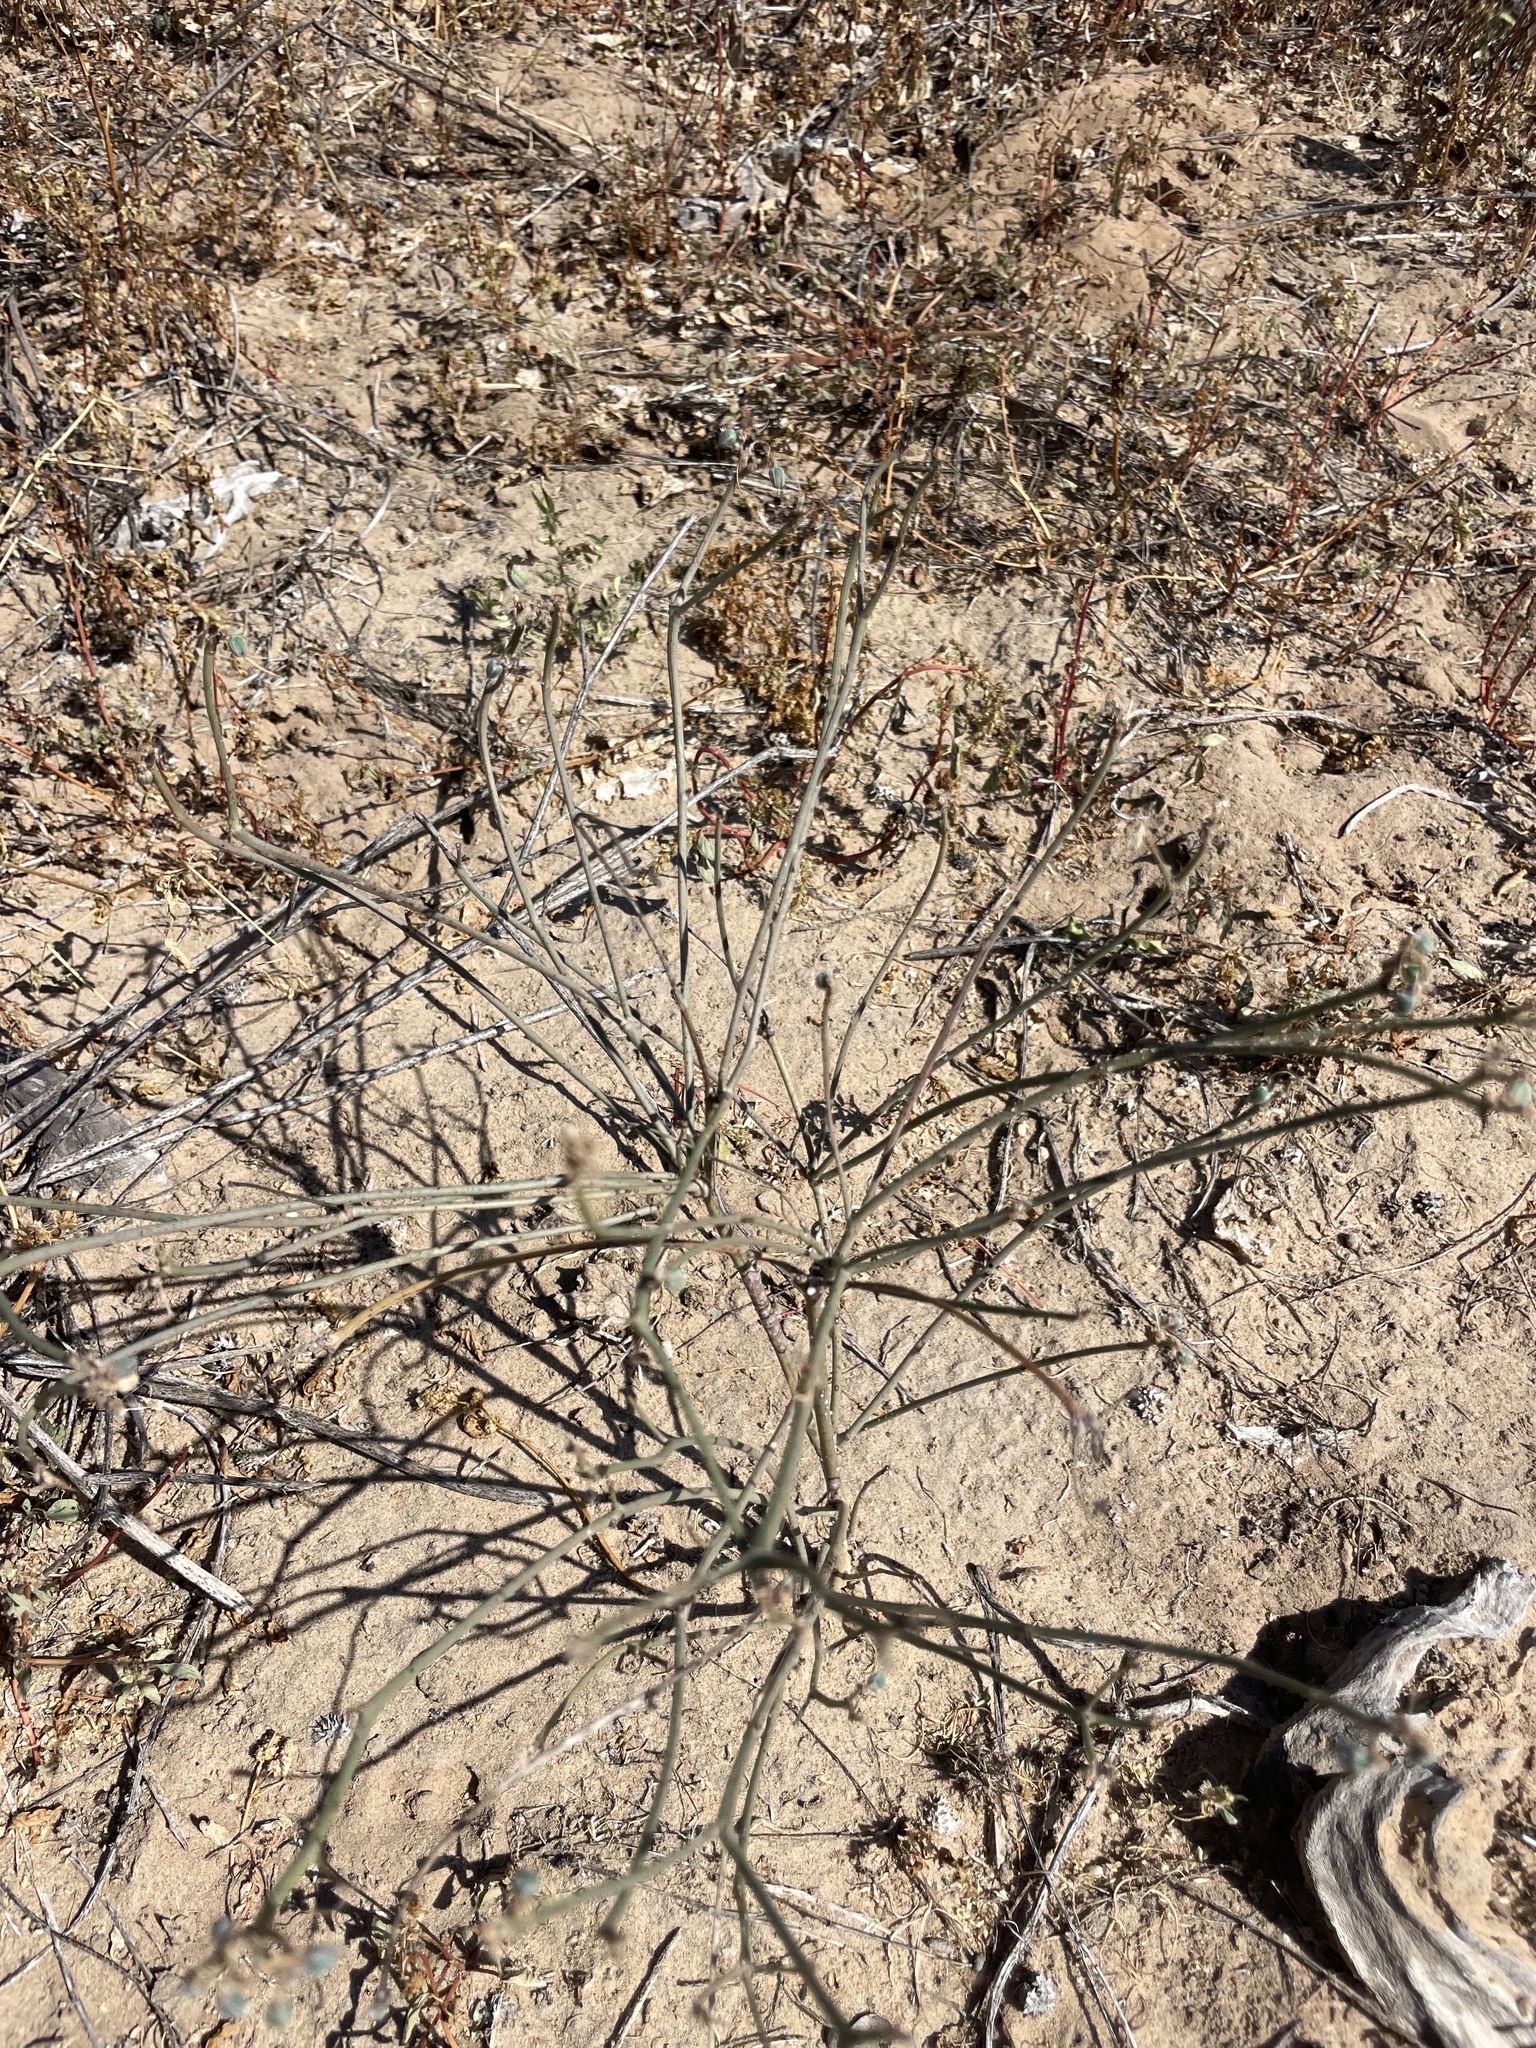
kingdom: Plantae
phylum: Tracheophyta
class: Magnoliopsida
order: Malpighiales
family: Euphorbiaceae
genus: Euphorbia
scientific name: Euphorbia eriantha
